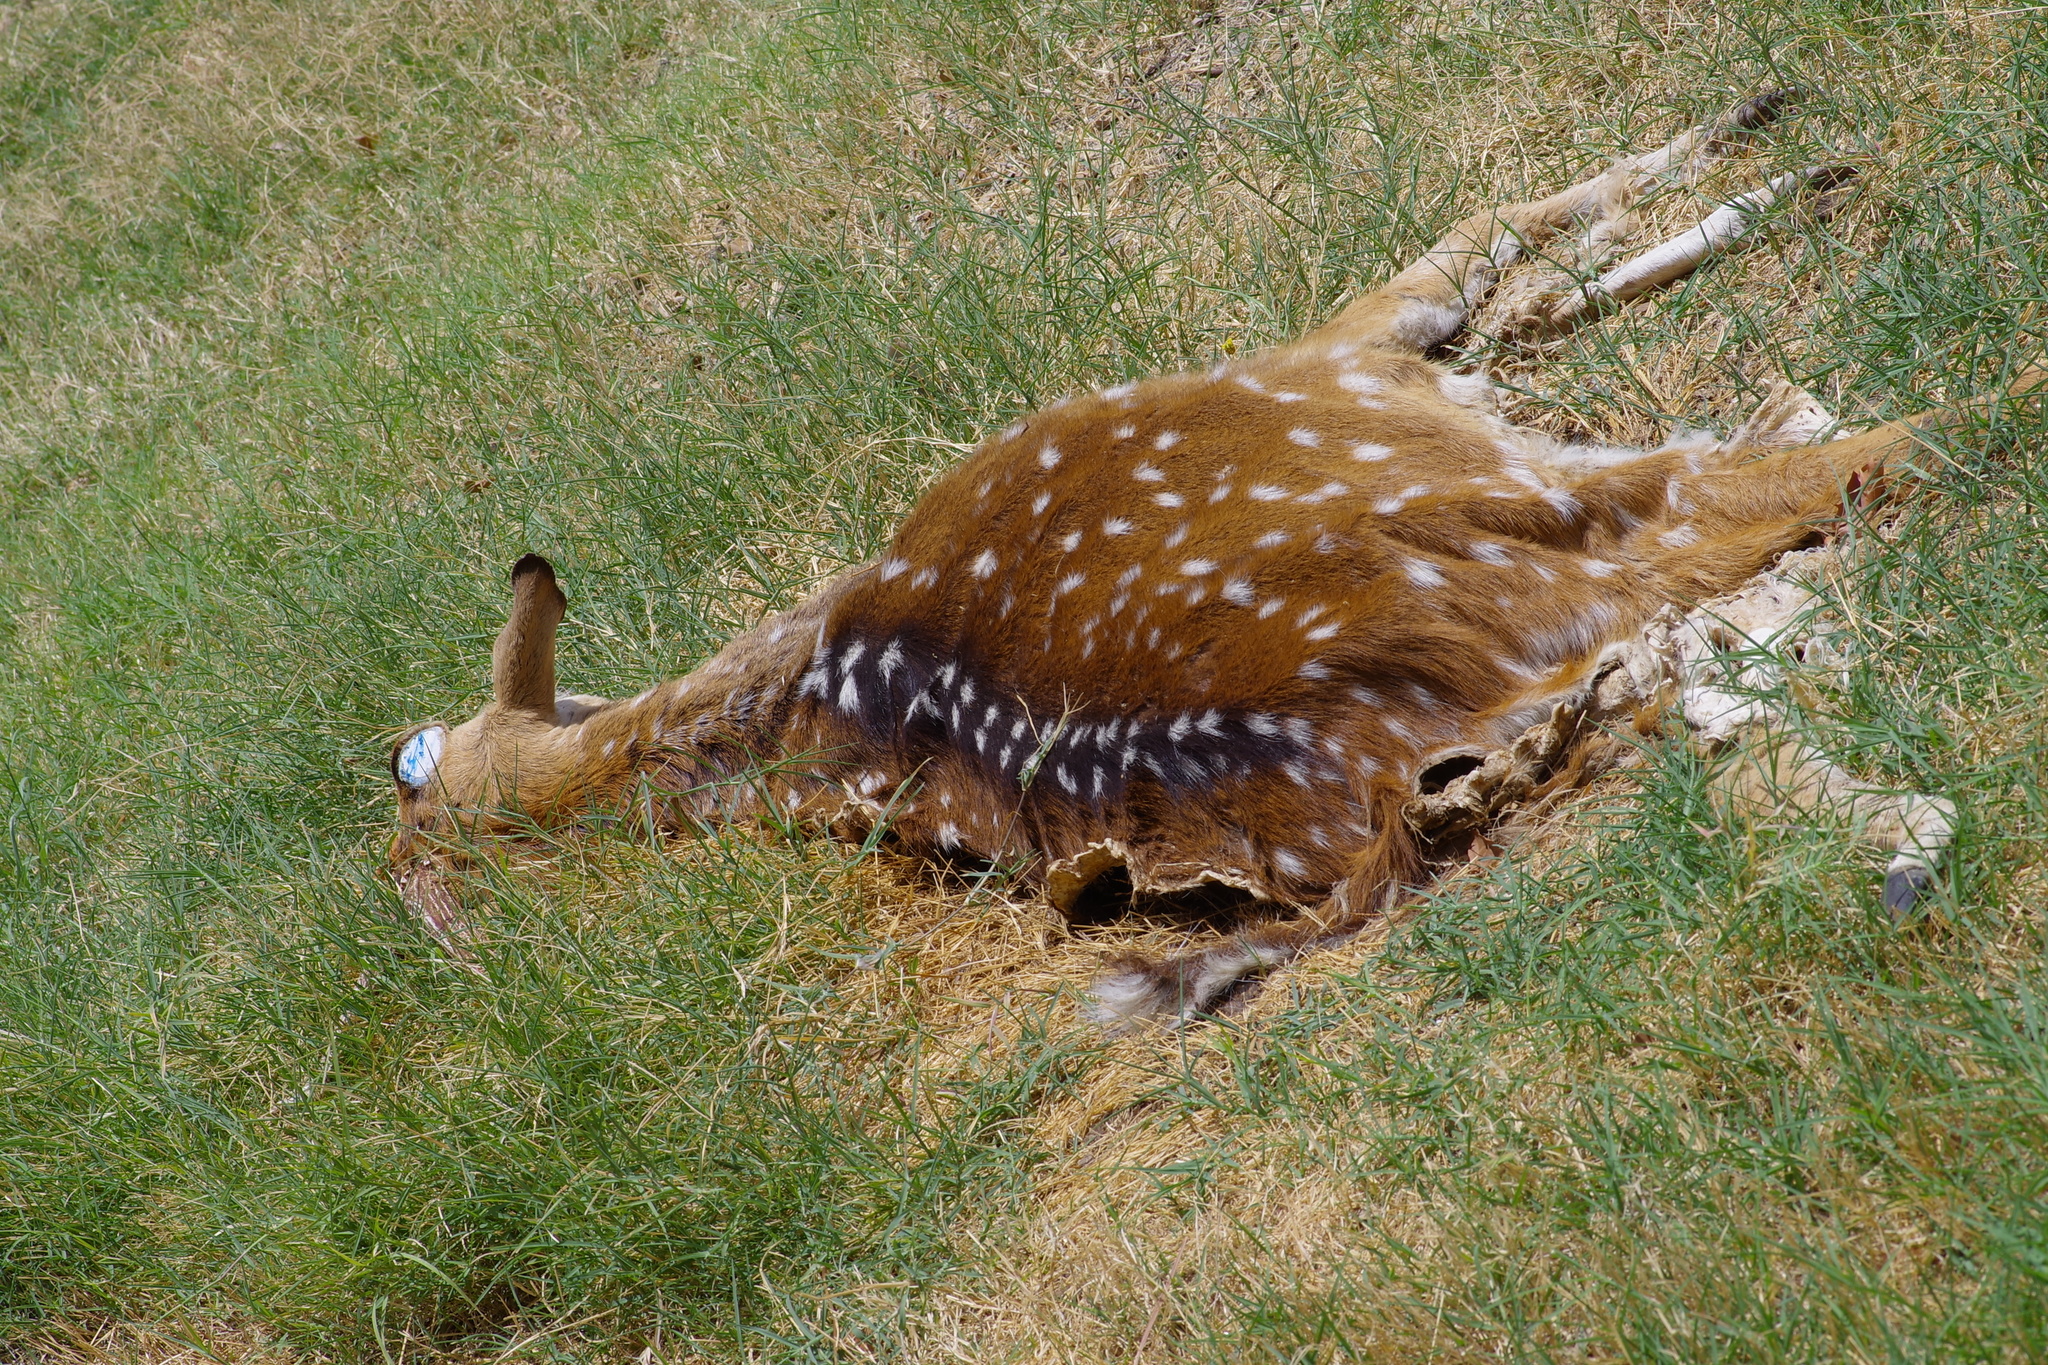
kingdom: Animalia
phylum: Chordata
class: Mammalia
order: Artiodactyla
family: Cervidae
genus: Axis
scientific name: Axis axis
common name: Chital
